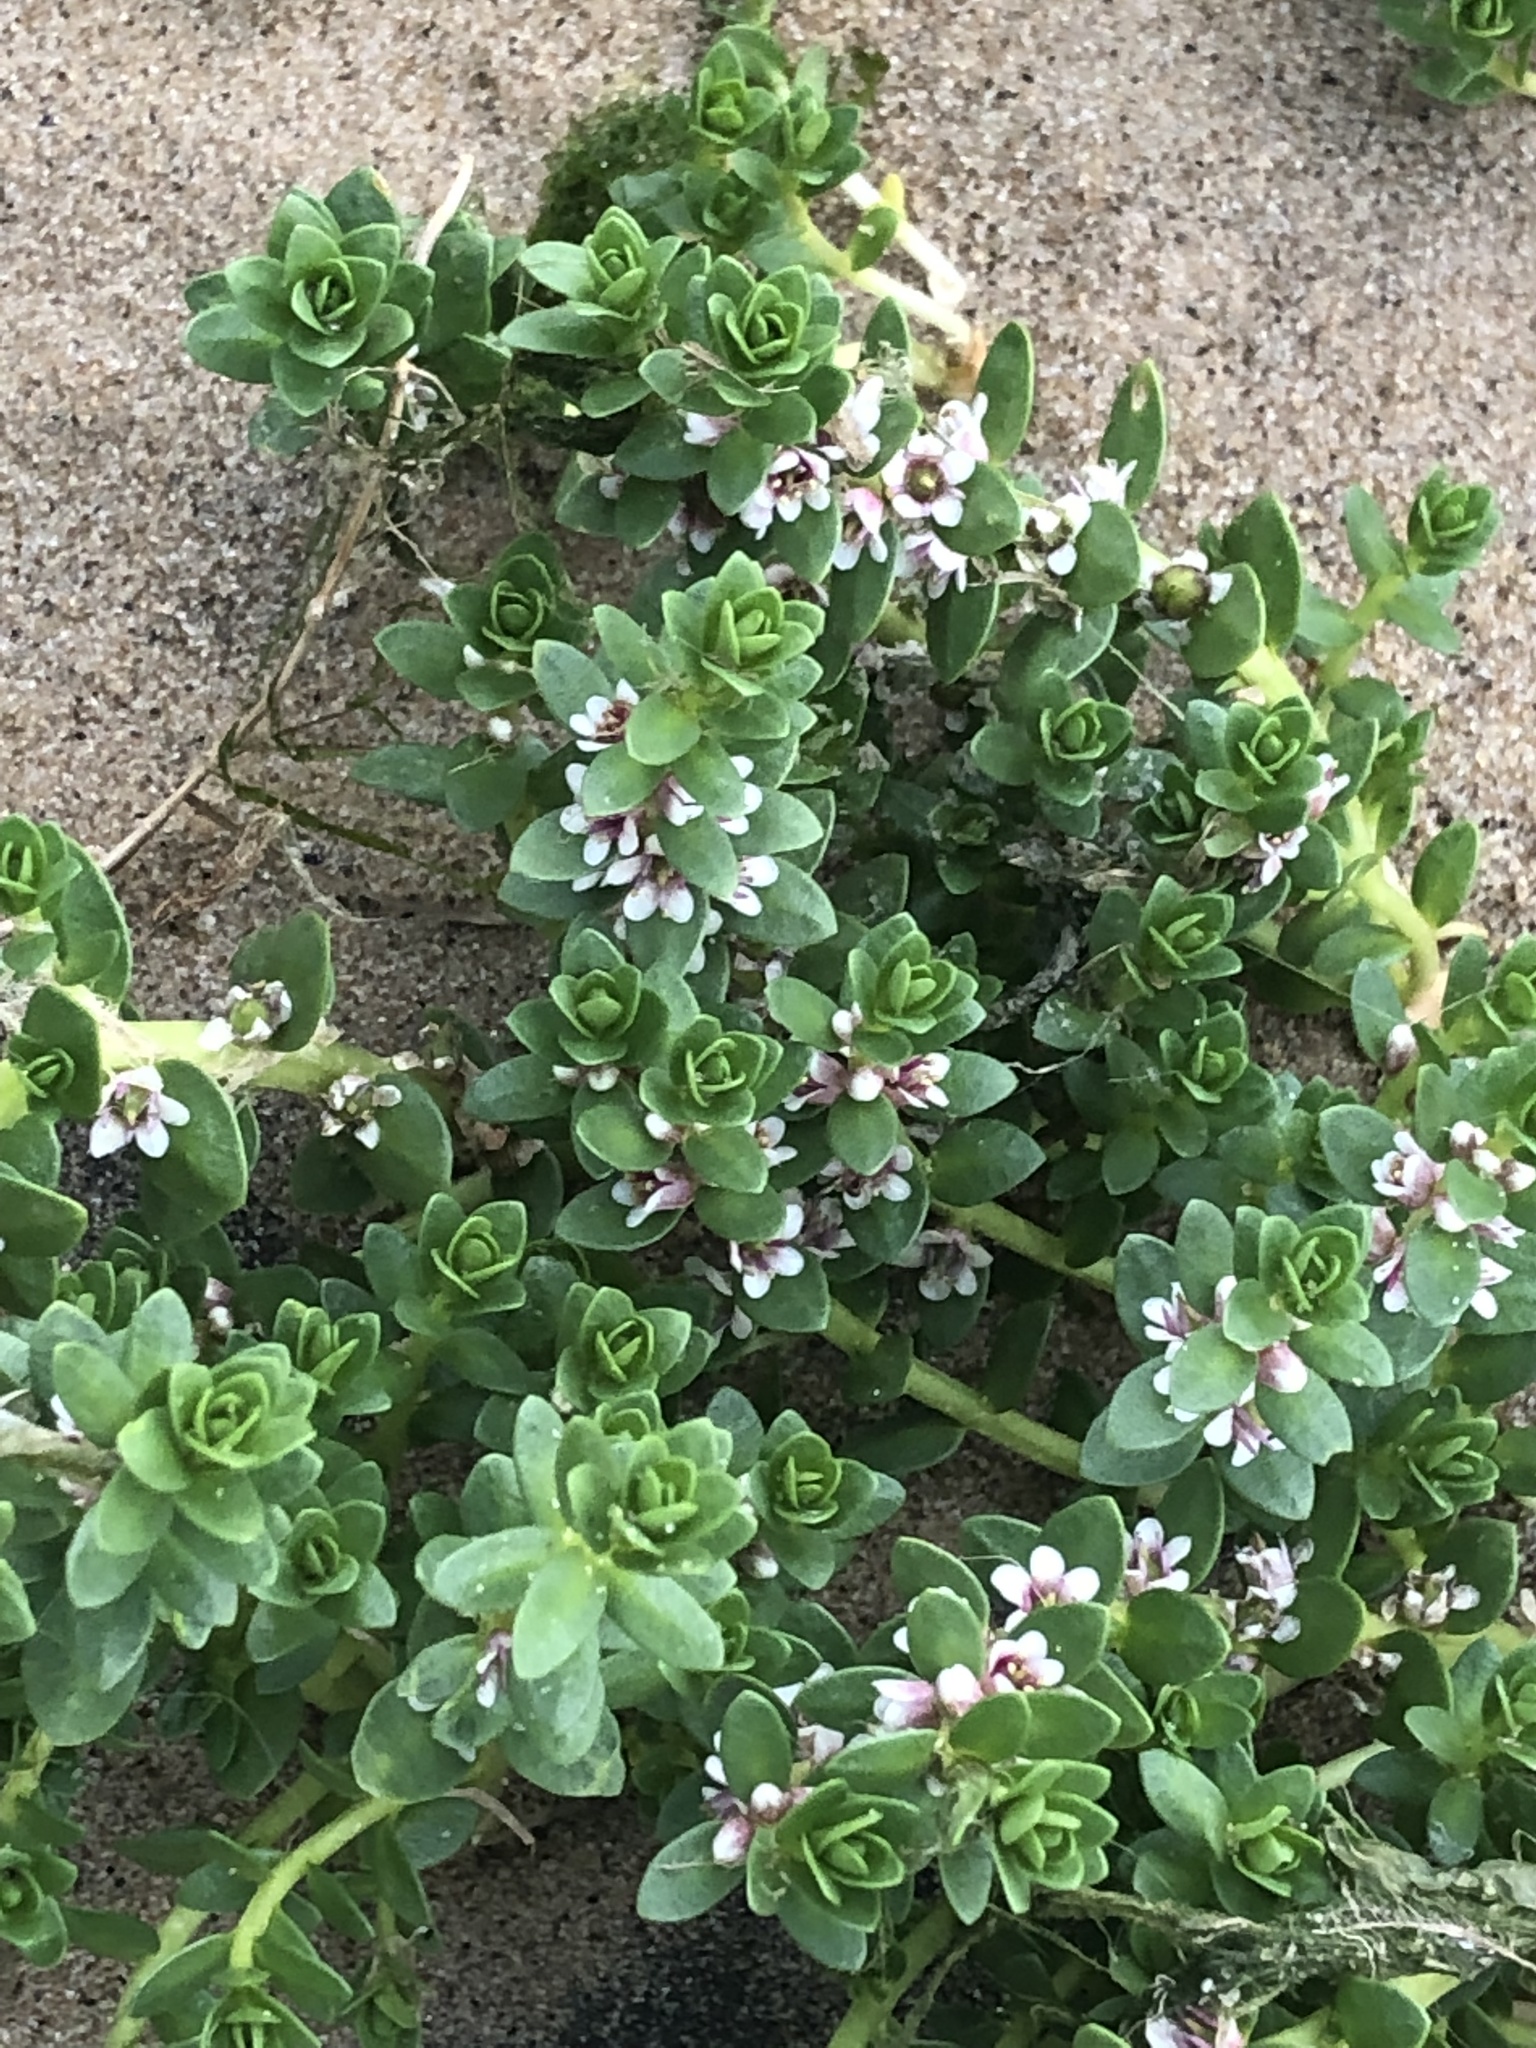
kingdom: Plantae
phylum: Tracheophyta
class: Magnoliopsida
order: Ericales
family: Primulaceae
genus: Lysimachia
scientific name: Lysimachia maritima
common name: Sea milkwort
